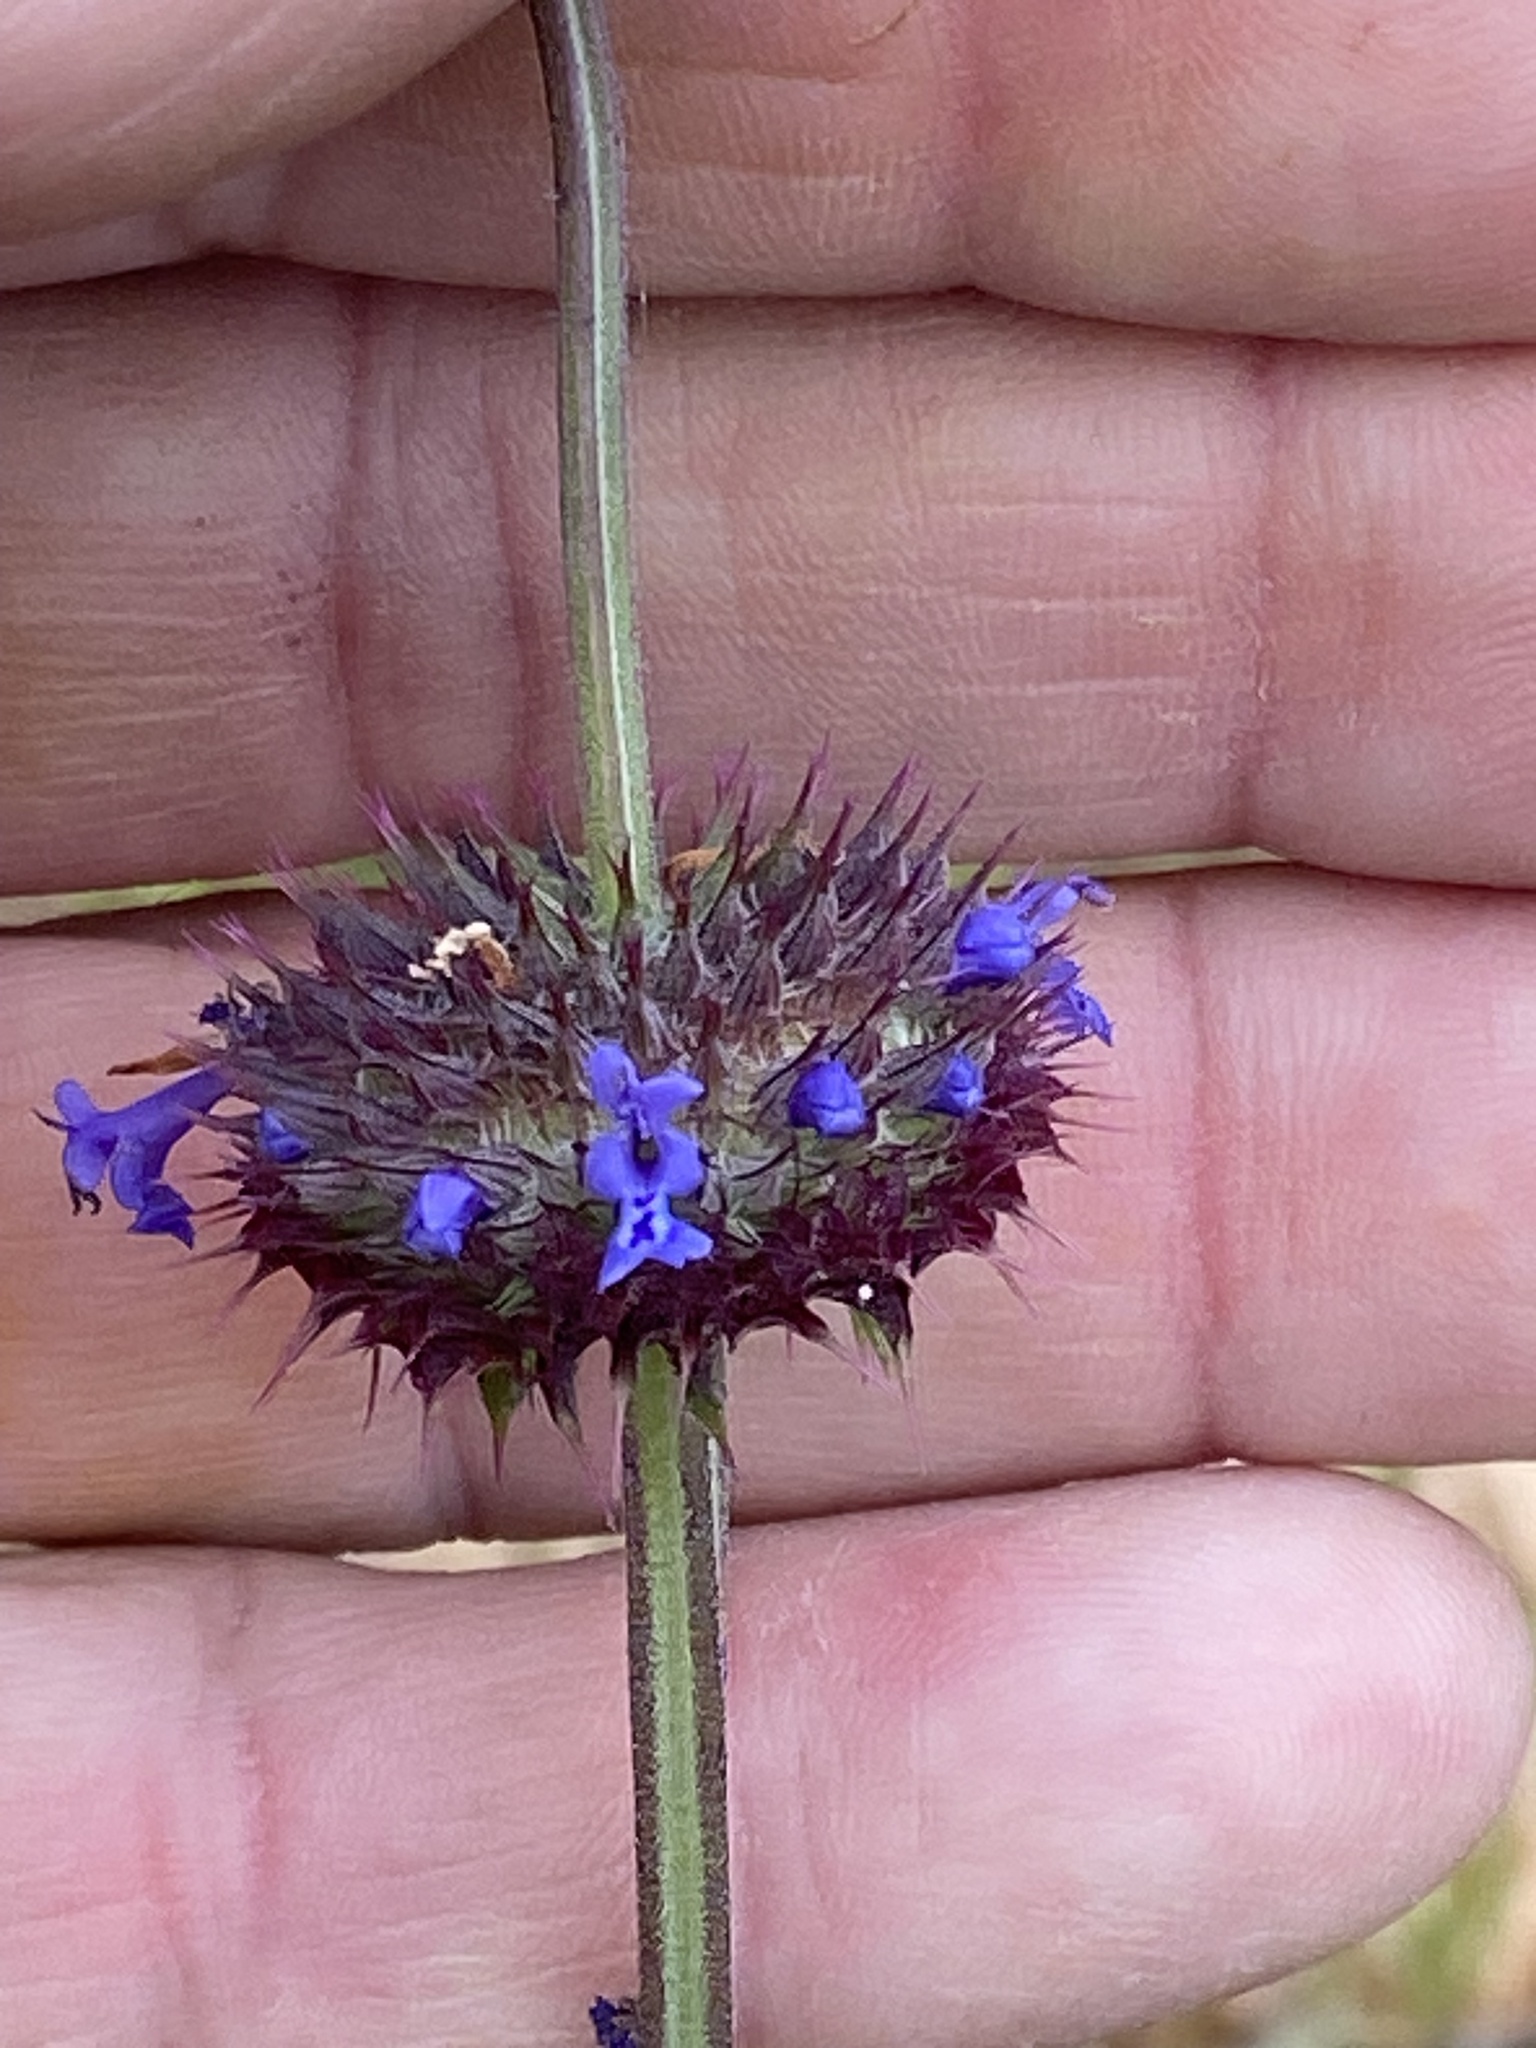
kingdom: Plantae
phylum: Tracheophyta
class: Magnoliopsida
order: Lamiales
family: Lamiaceae
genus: Salvia
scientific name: Salvia columbariae
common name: Chia
